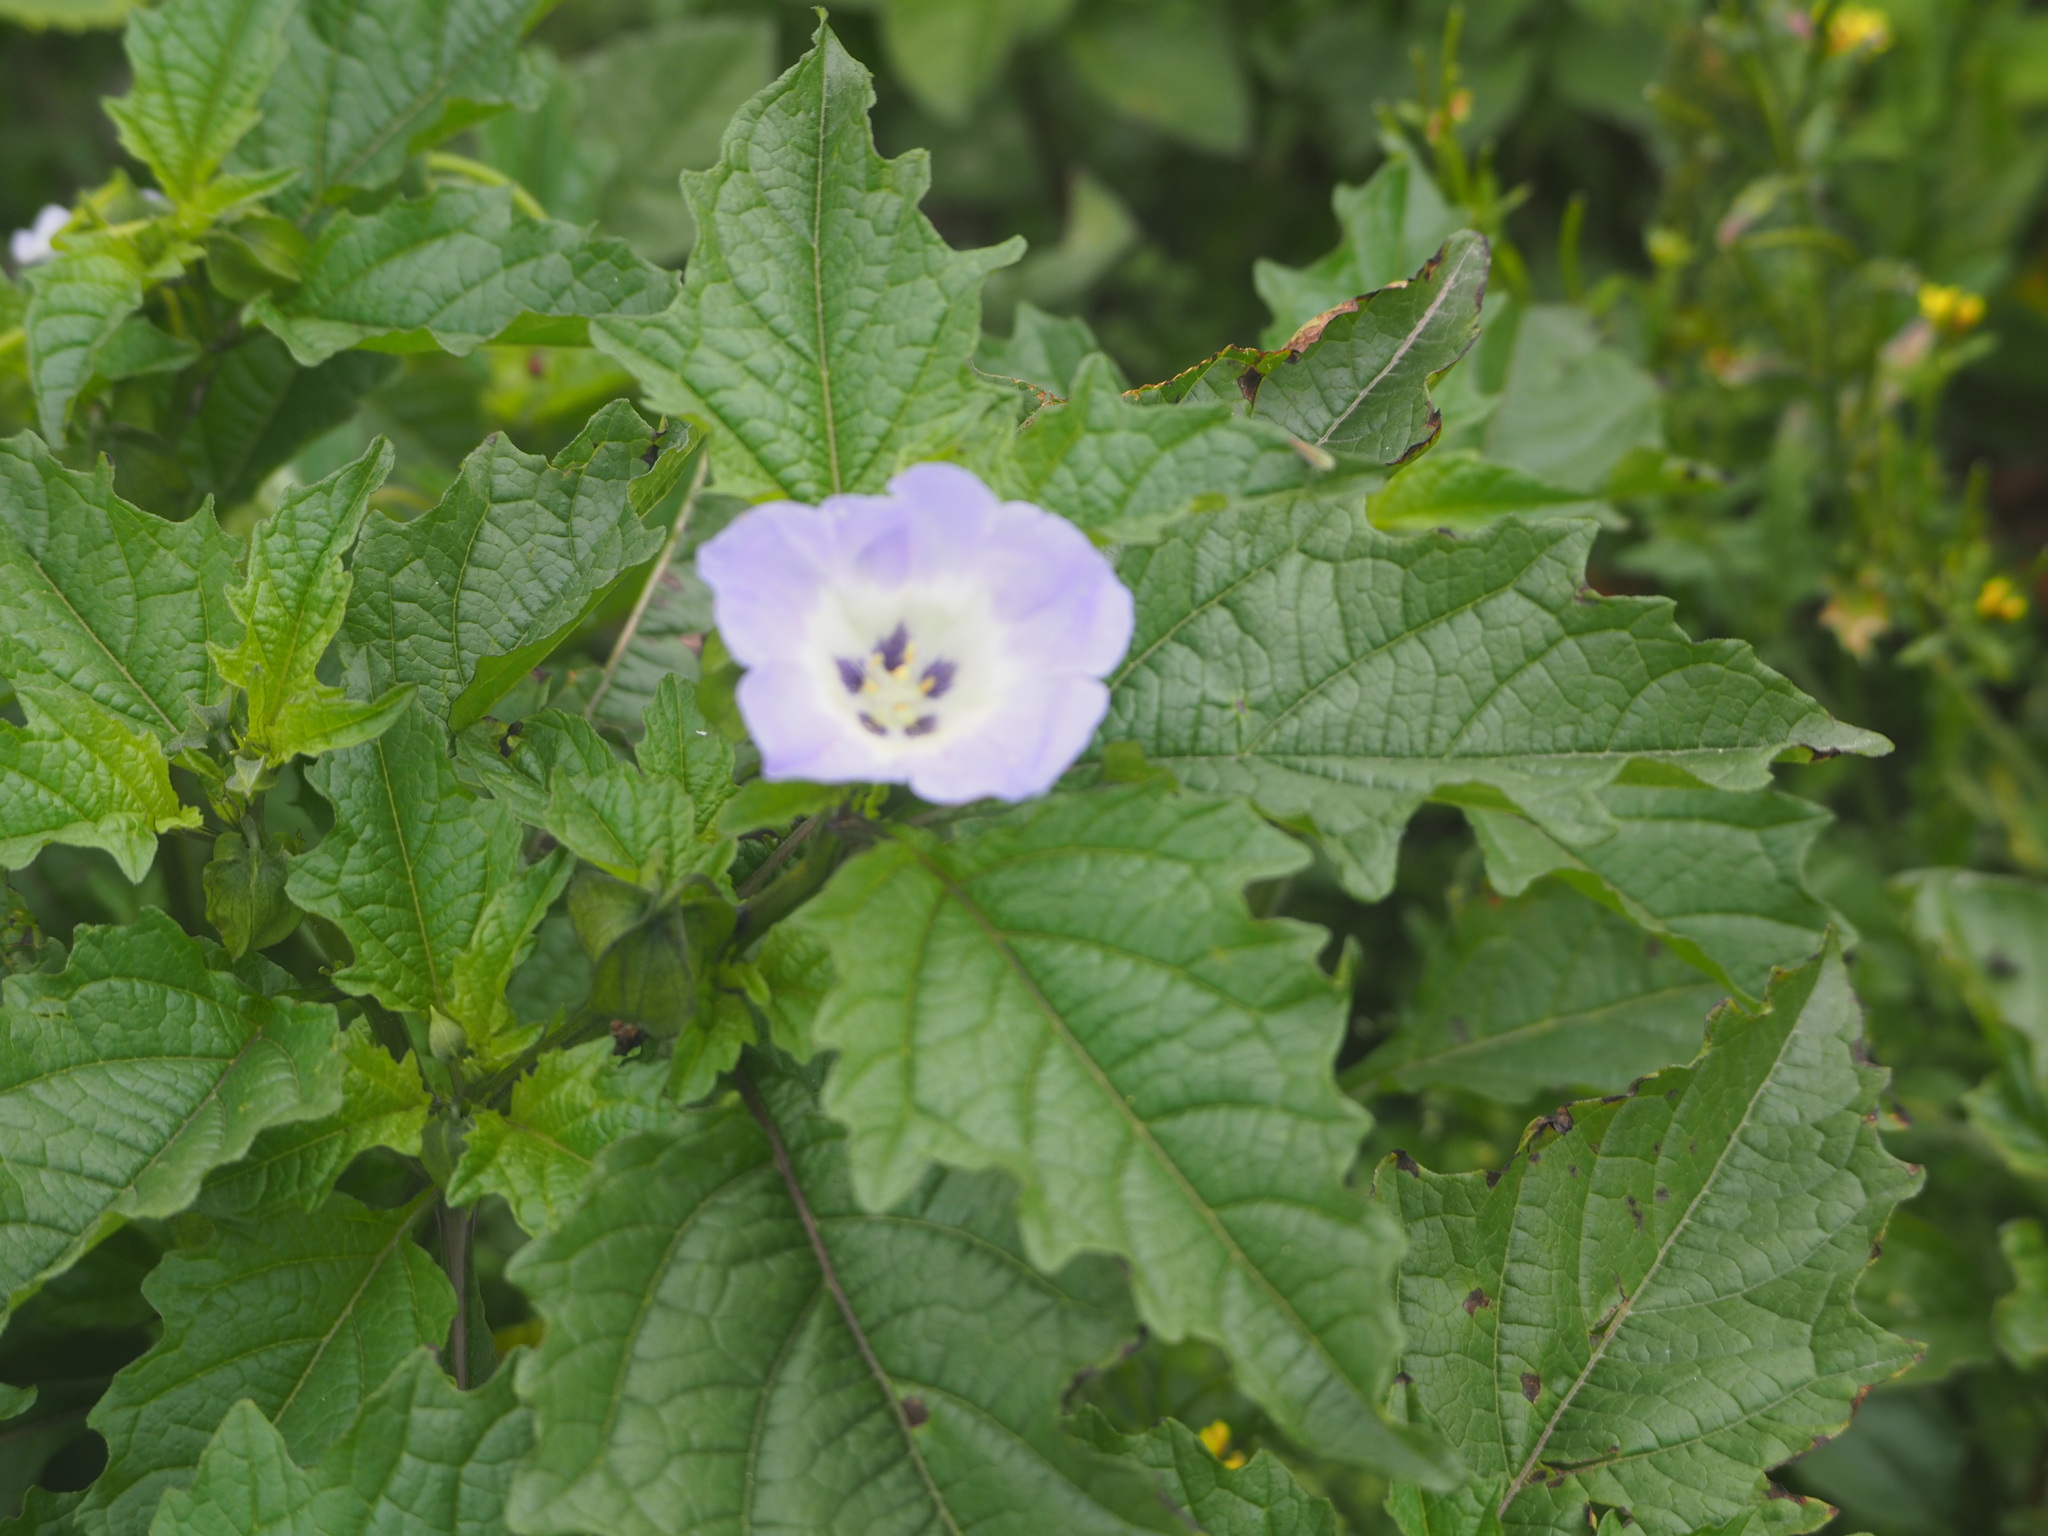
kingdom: Plantae
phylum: Tracheophyta
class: Magnoliopsida
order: Solanales
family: Solanaceae
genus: Nicandra
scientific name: Nicandra physalodes
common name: Apple-of-peru
